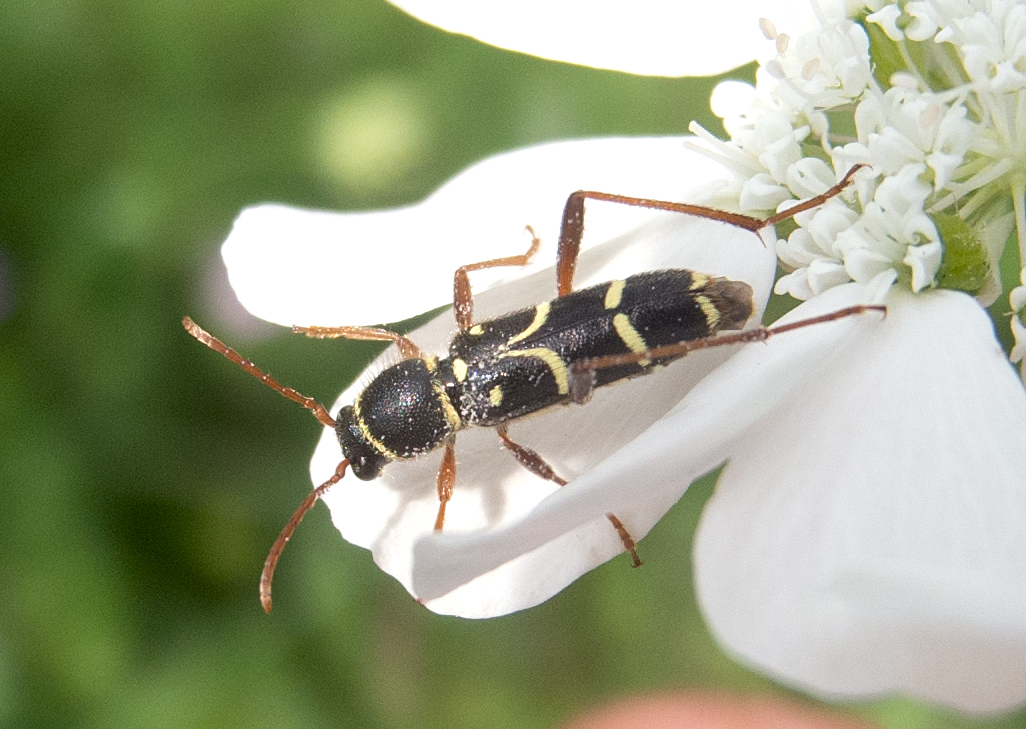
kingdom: Animalia
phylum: Arthropoda
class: Insecta
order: Coleoptera
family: Cerambycidae
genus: Clytus
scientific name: Clytus rhamni
